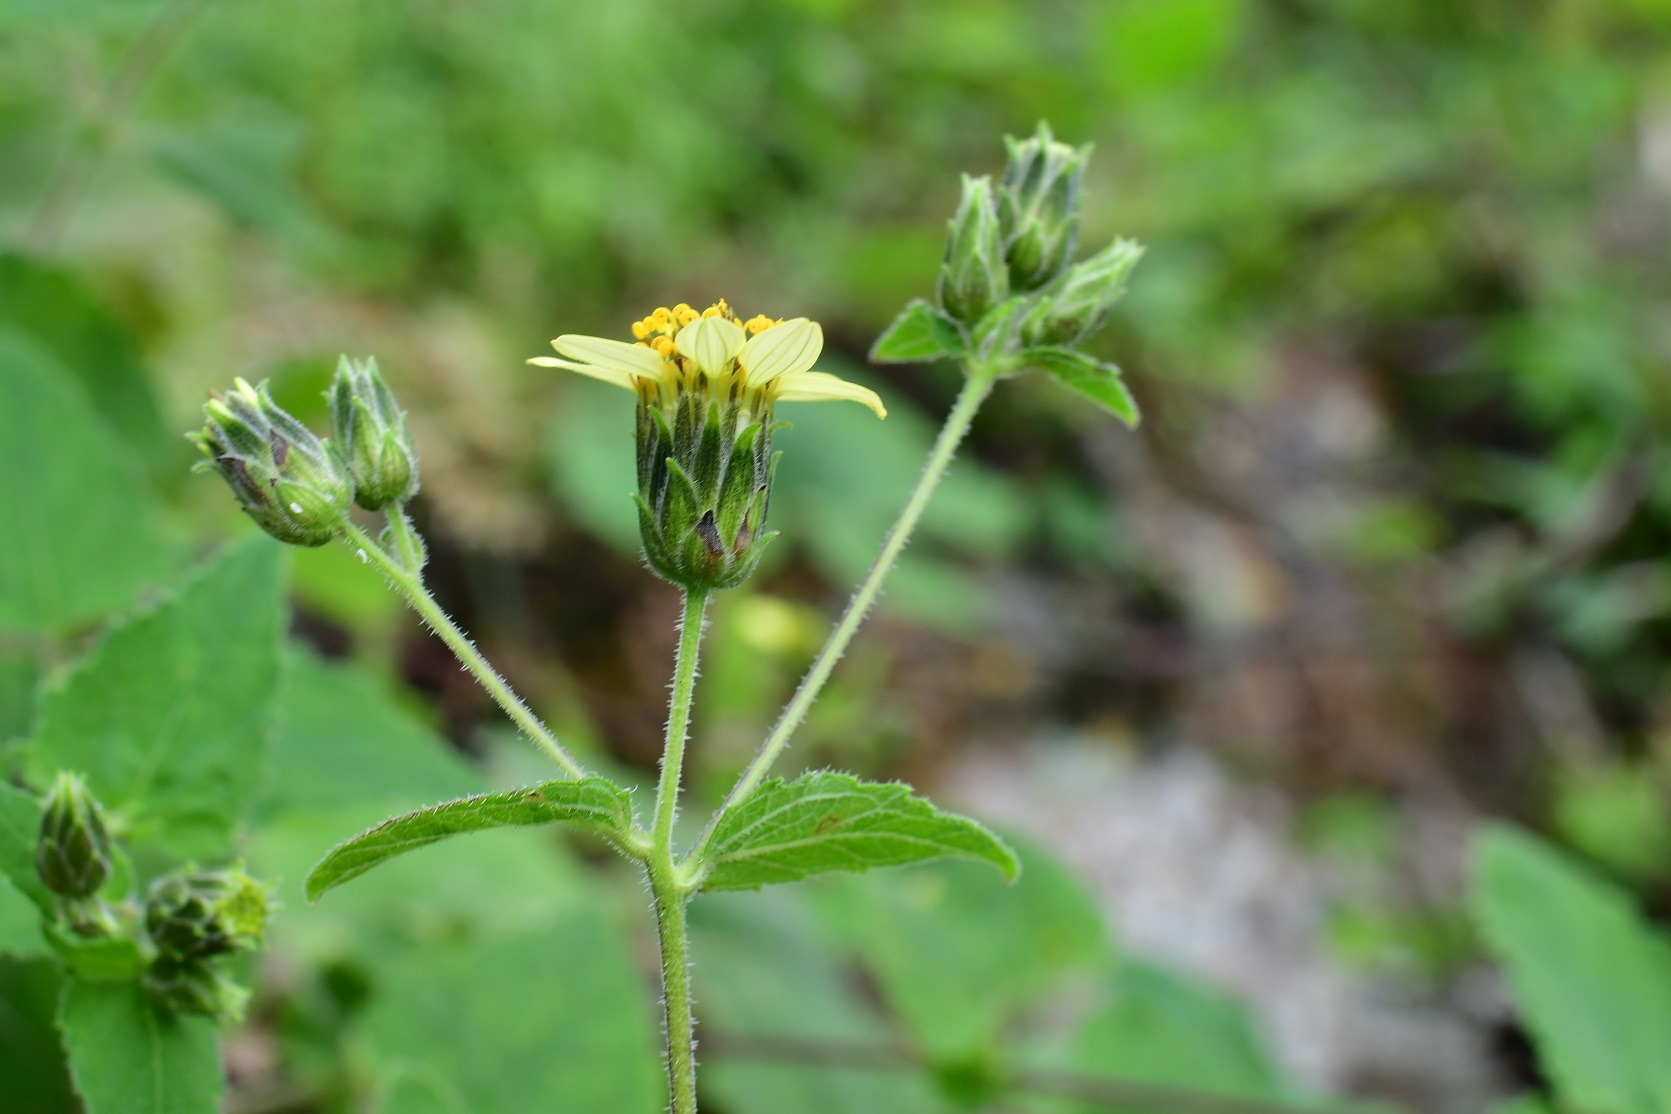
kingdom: Plantae
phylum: Tracheophyta
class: Magnoliopsida
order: Asterales
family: Asteraceae
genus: Simsia
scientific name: Simsia annectens
